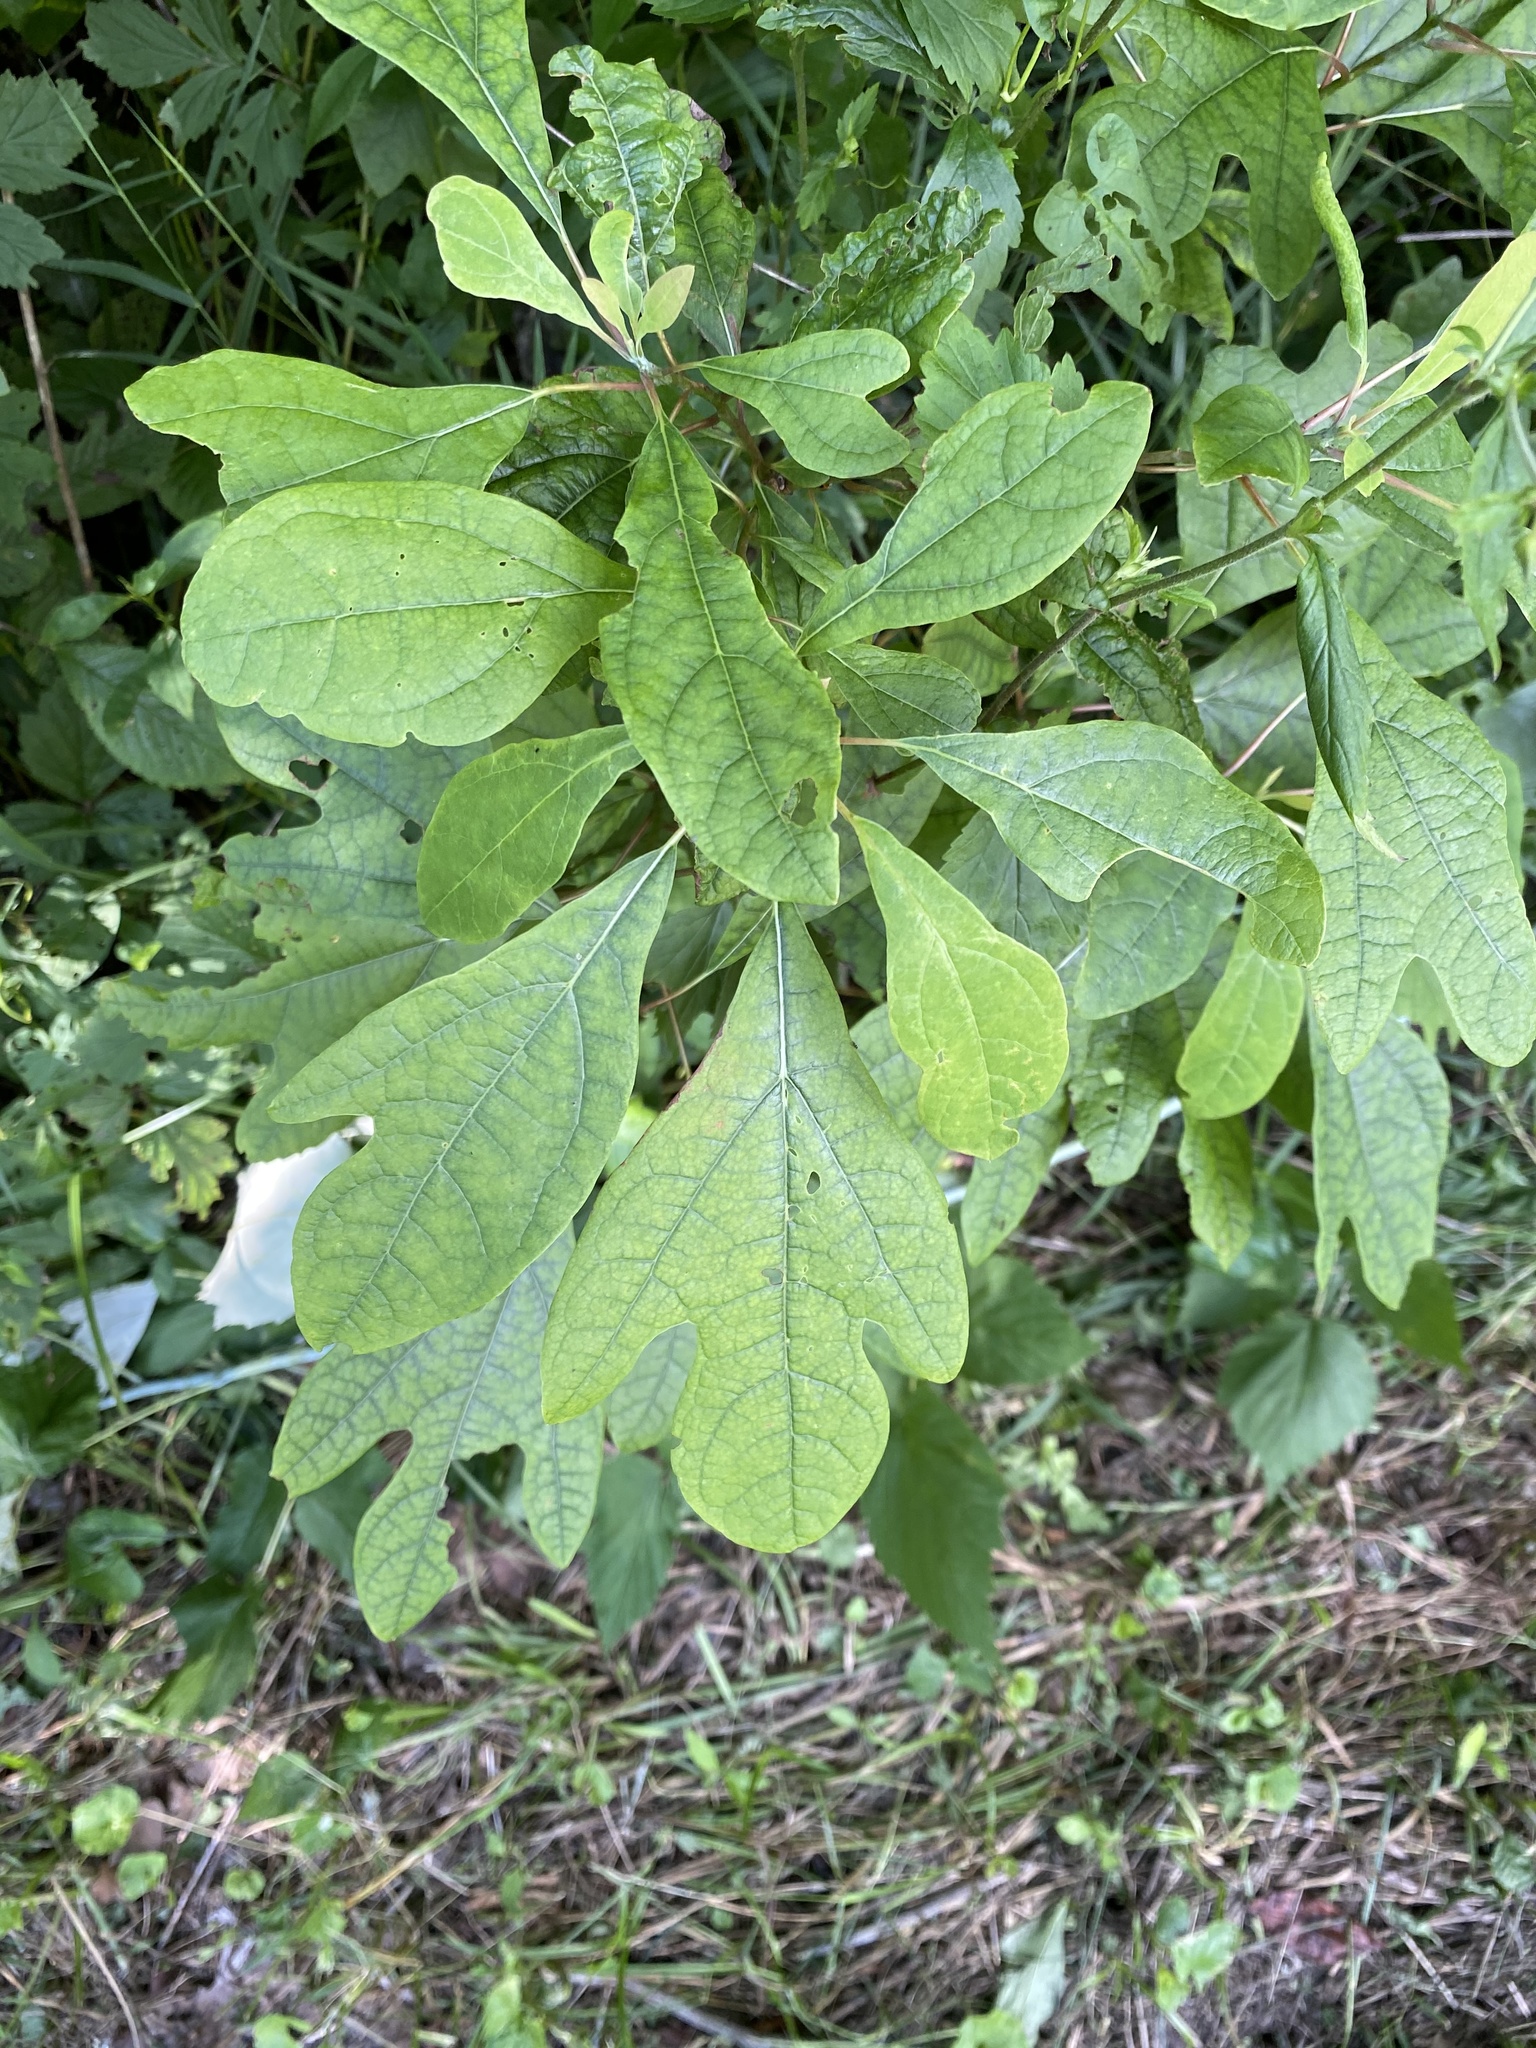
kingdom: Plantae
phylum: Tracheophyta
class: Magnoliopsida
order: Laurales
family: Lauraceae
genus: Sassafras
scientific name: Sassafras albidum
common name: Sassafras
